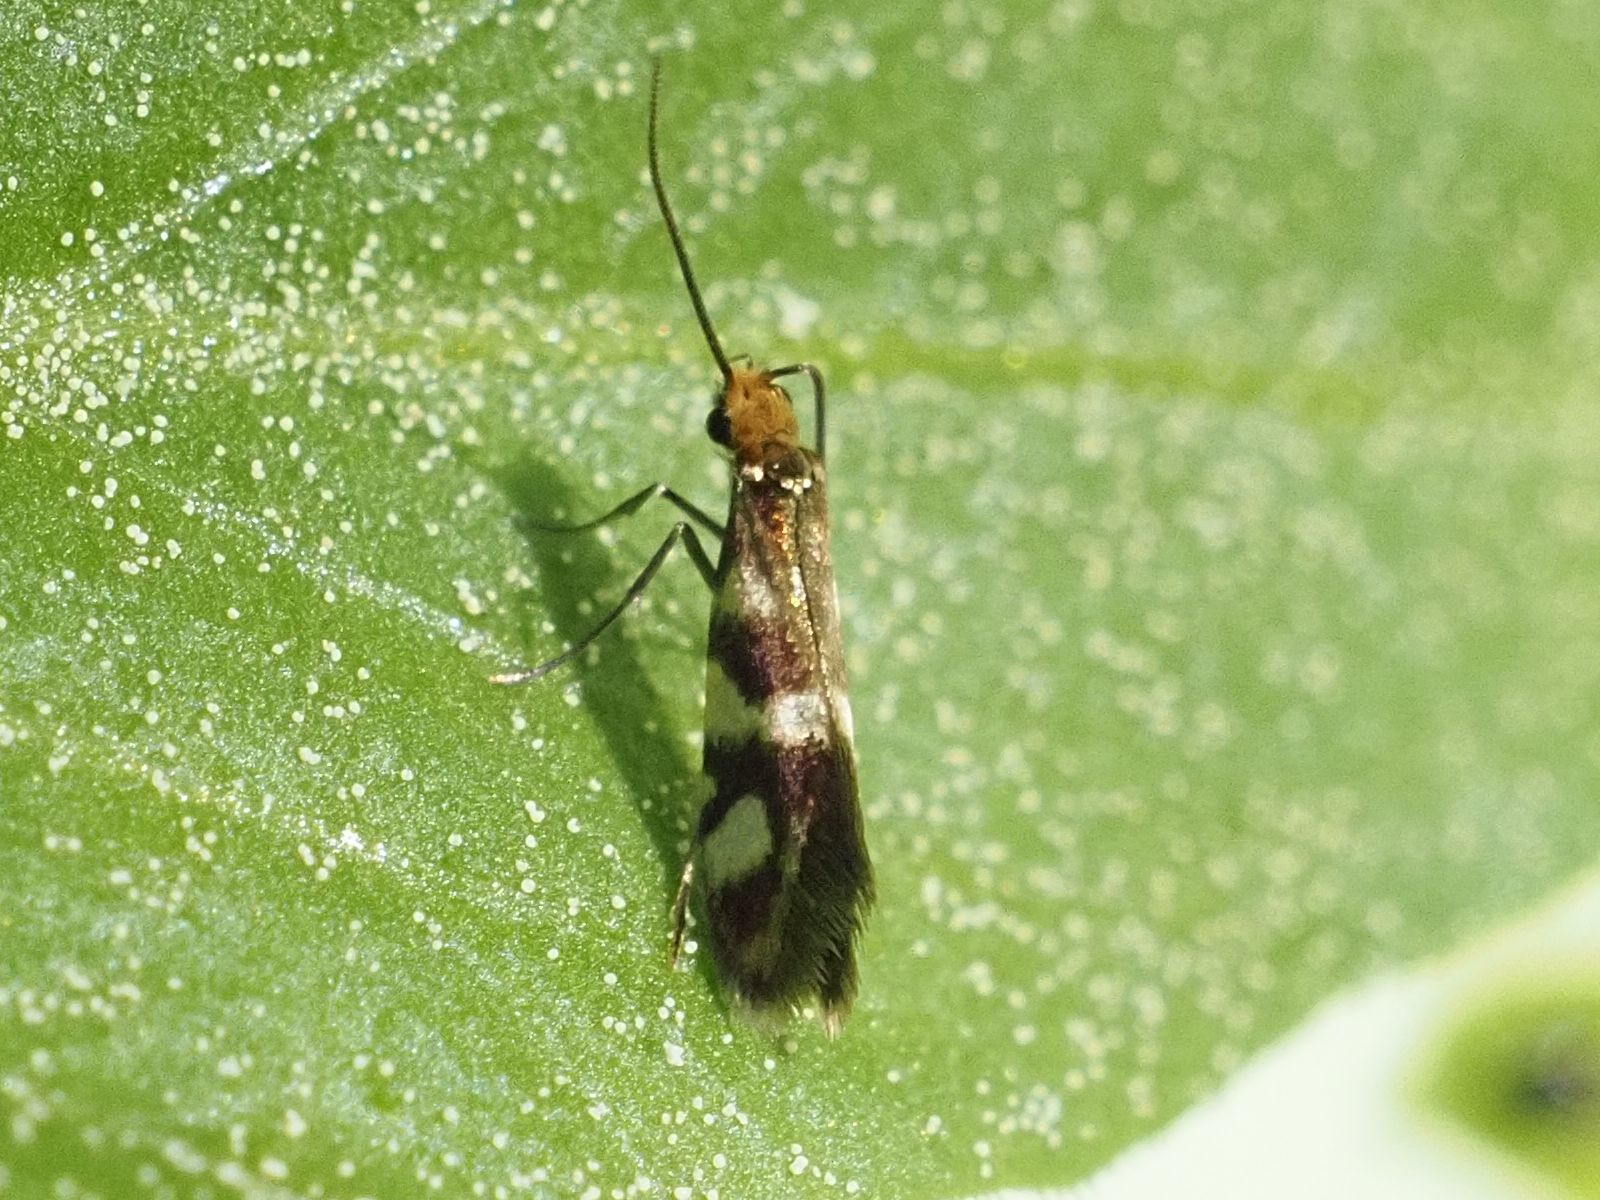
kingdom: Animalia
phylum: Arthropoda
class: Insecta
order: Lepidoptera
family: Micropterigidae
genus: Micropterix
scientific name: Micropterix schaefferi
